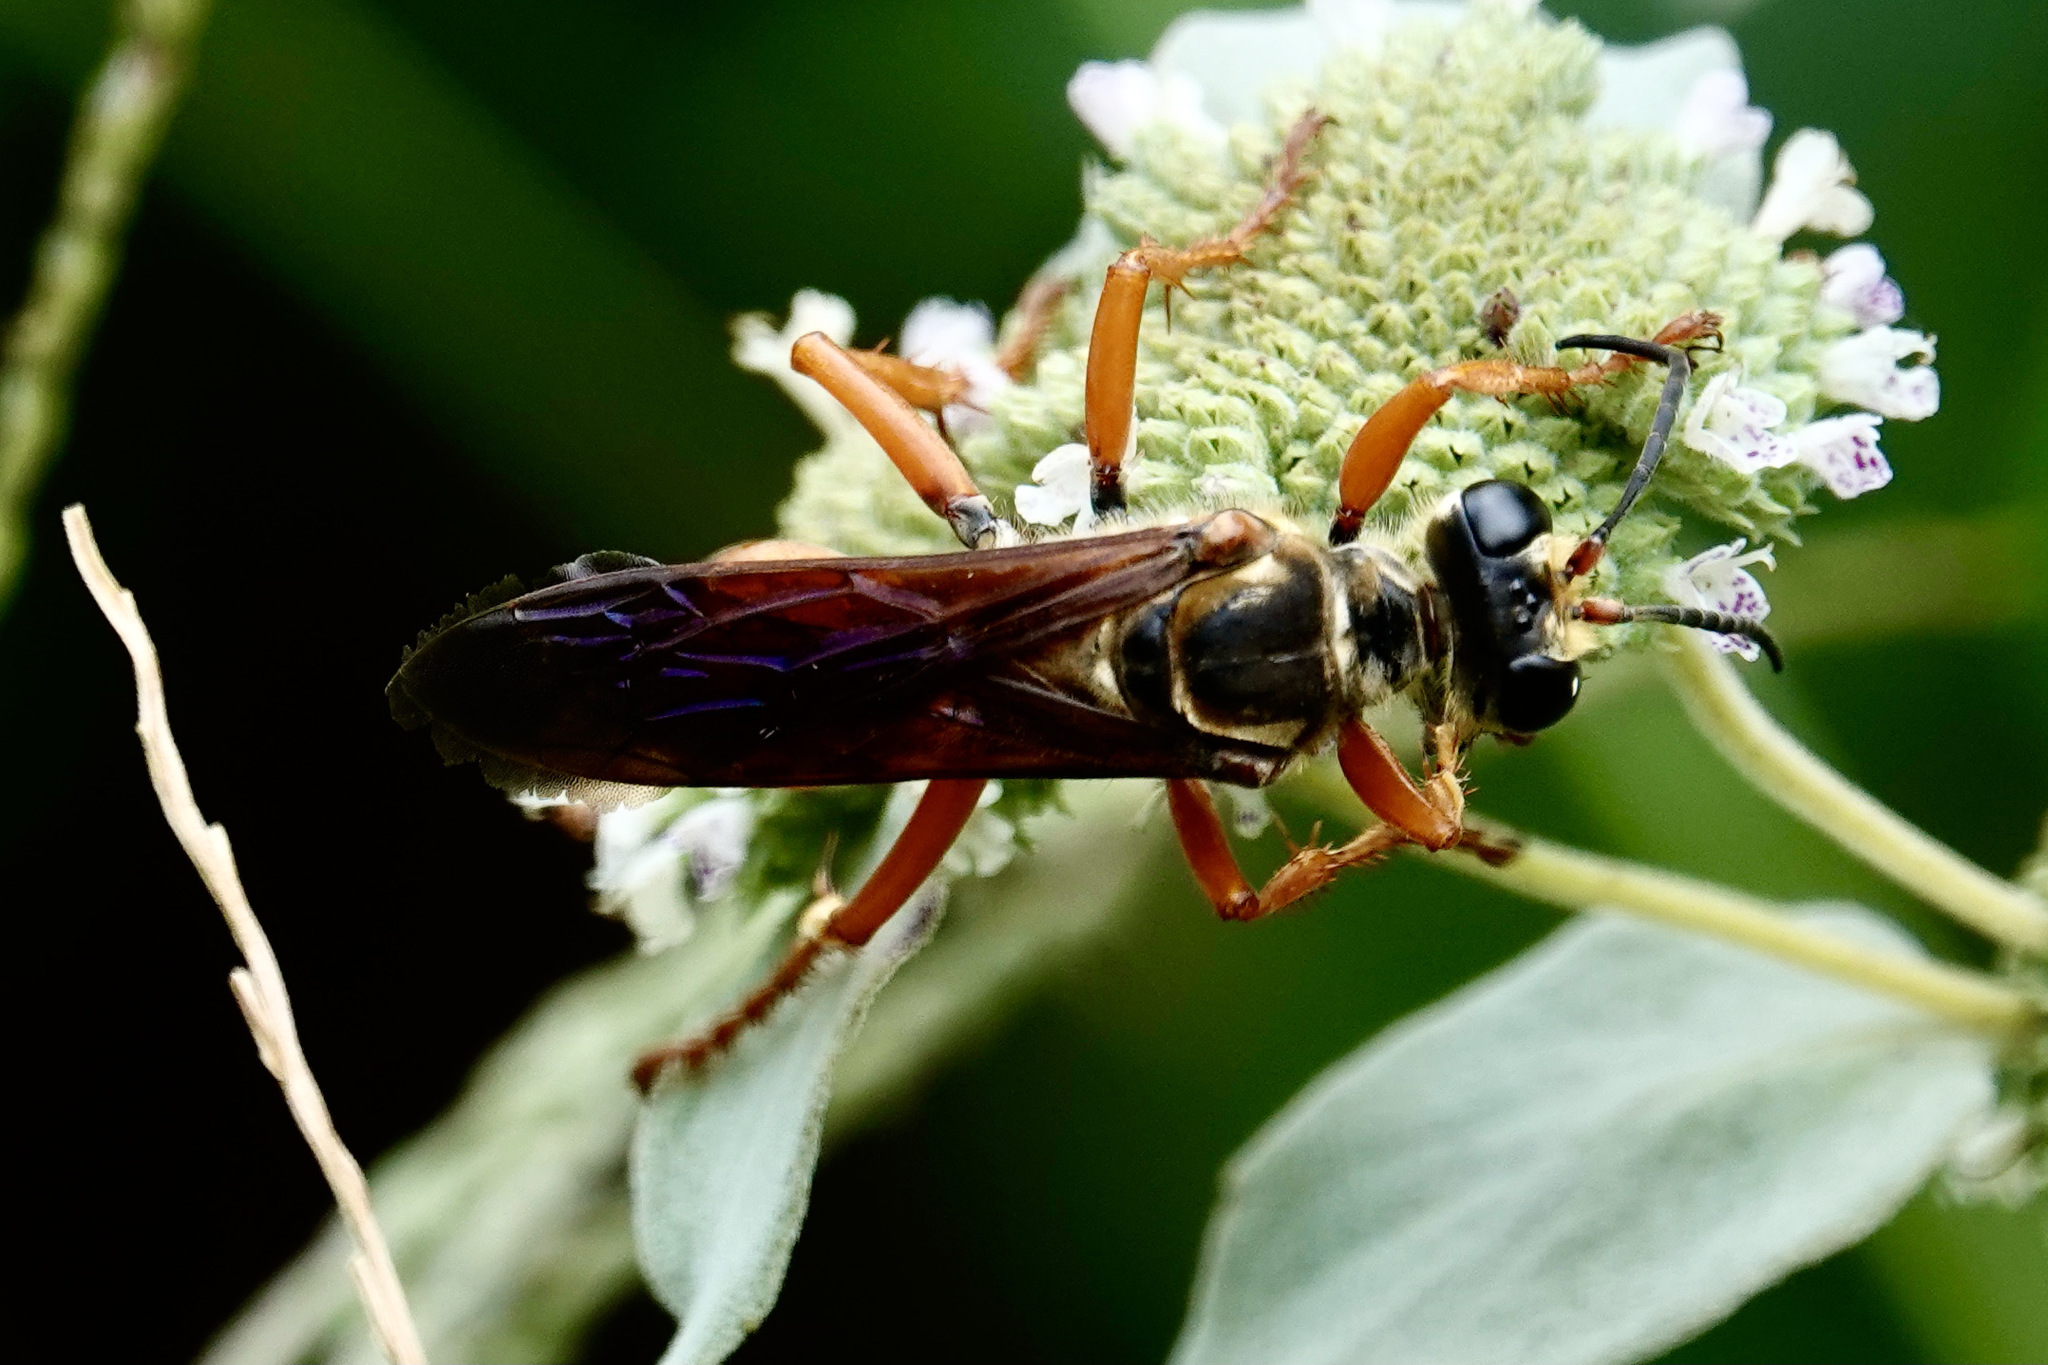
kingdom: Animalia
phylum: Arthropoda
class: Insecta
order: Hymenoptera
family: Sphecidae
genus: Sphex
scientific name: Sphex ichneumoneus
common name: Great golden digger wasp
